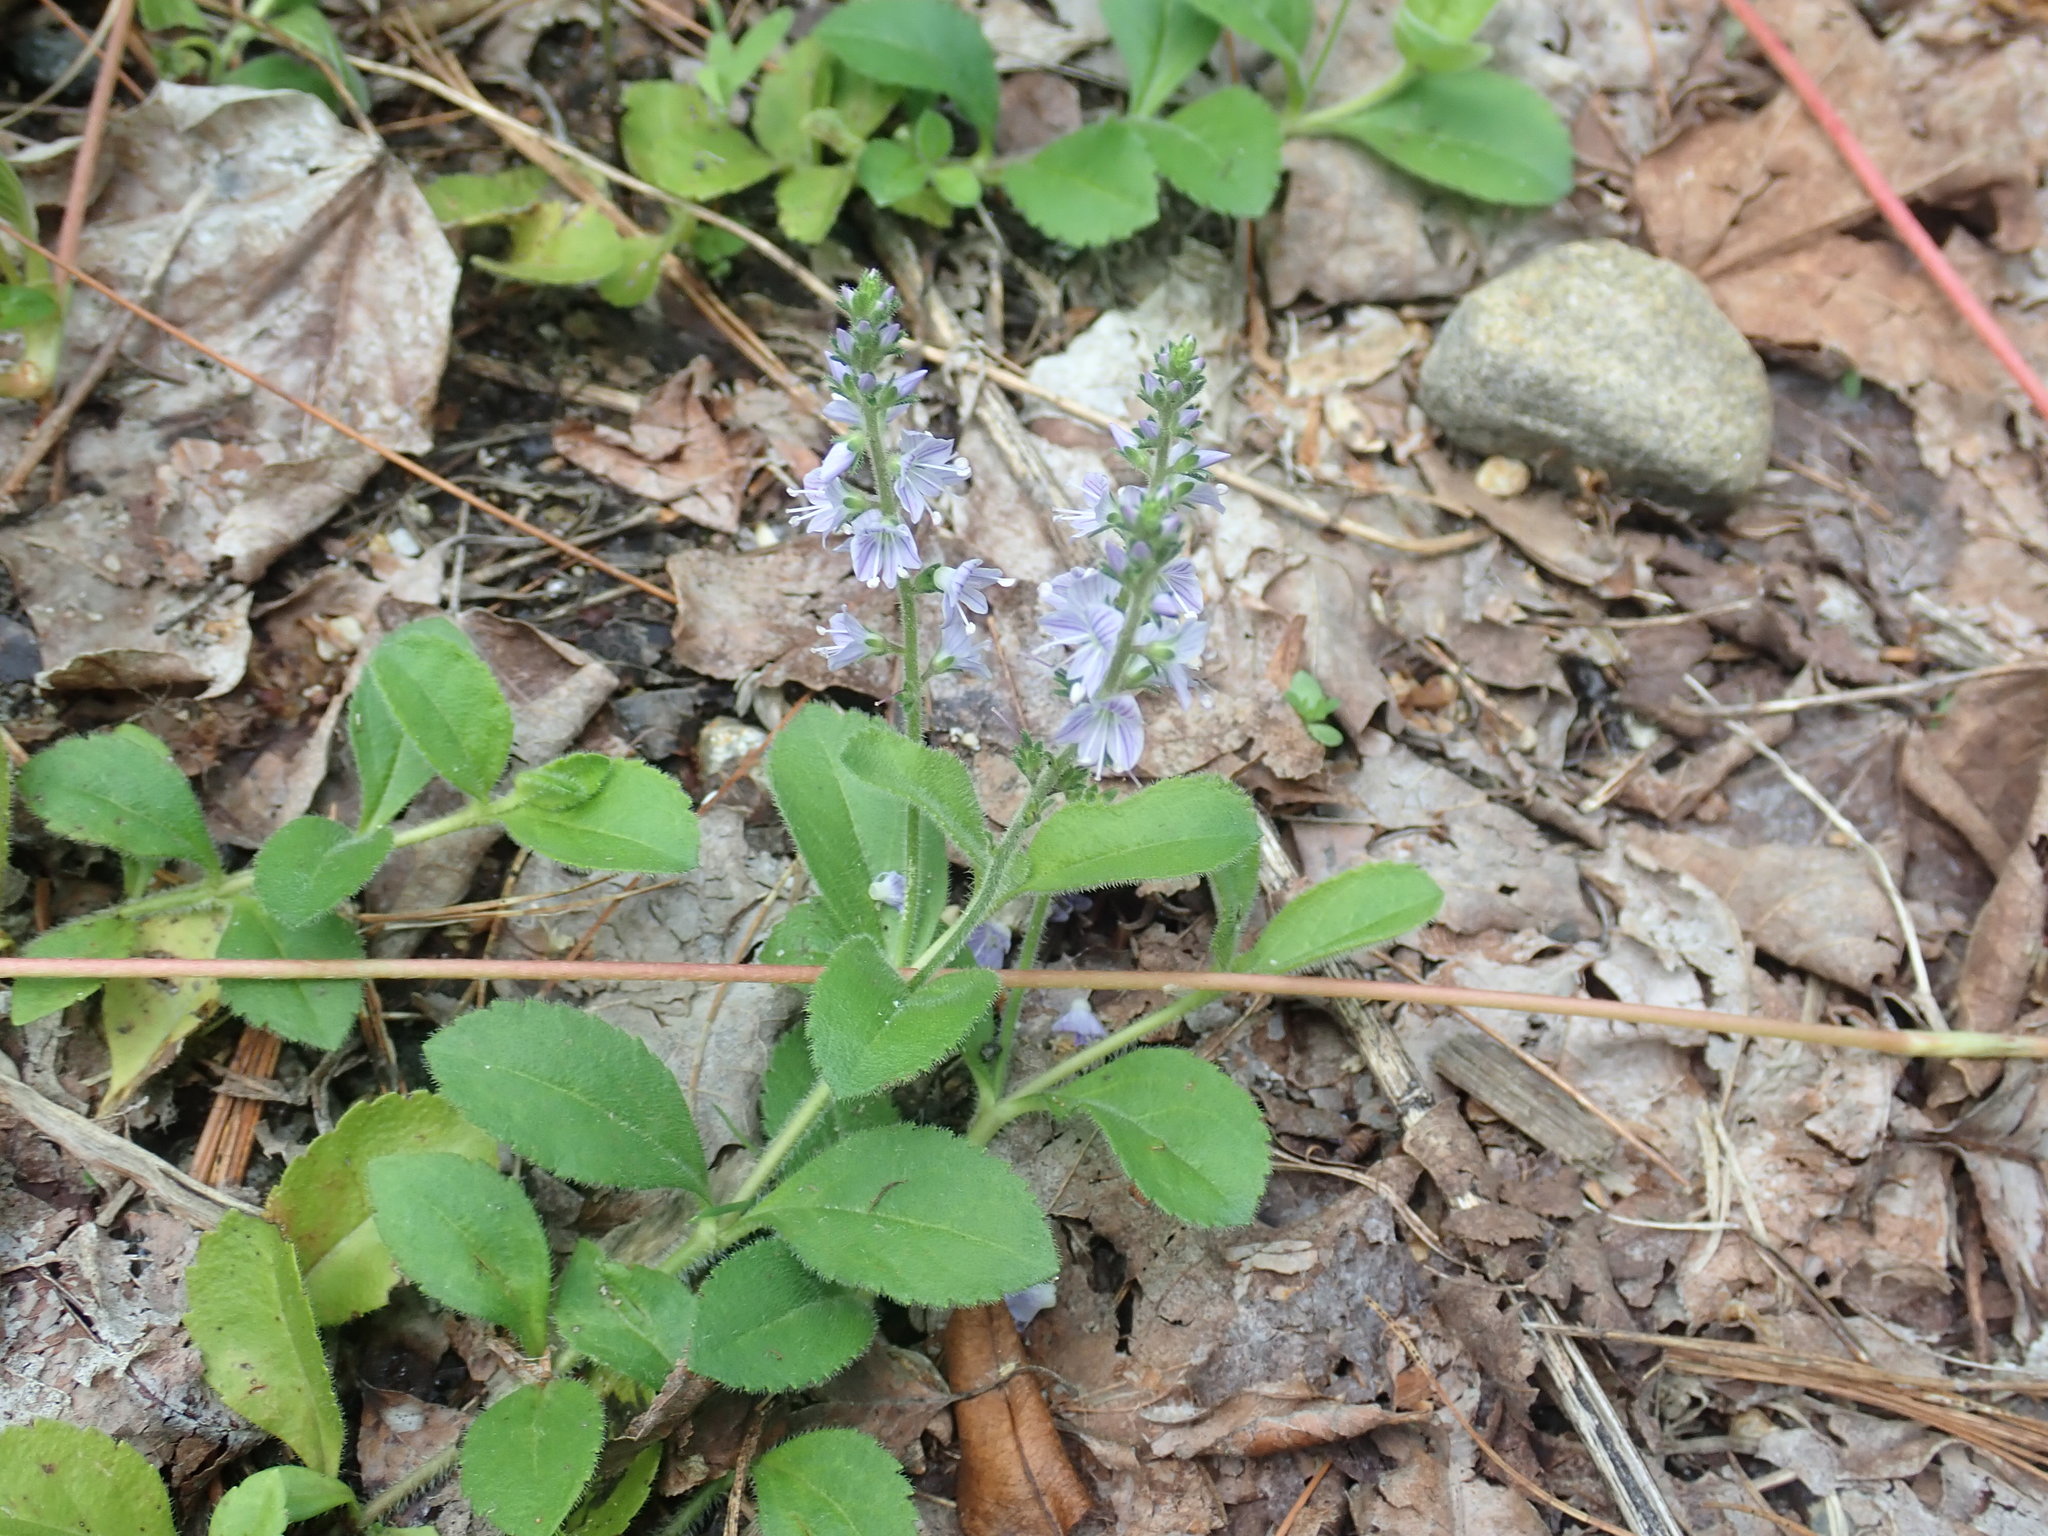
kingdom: Plantae
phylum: Tracheophyta
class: Magnoliopsida
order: Lamiales
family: Plantaginaceae
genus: Veronica
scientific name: Veronica officinalis
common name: Common speedwell
